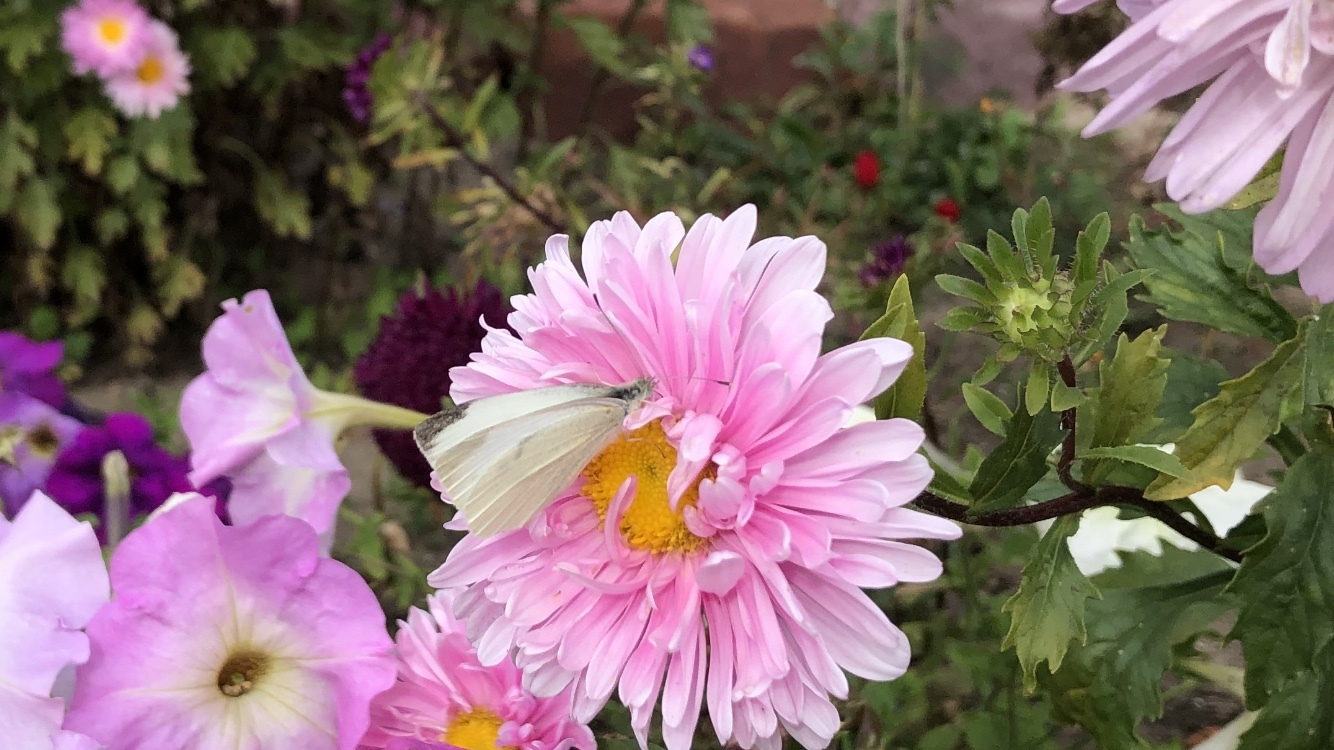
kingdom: Animalia
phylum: Arthropoda
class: Insecta
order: Lepidoptera
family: Pieridae
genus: Pieris
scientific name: Pieris rapae
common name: Small white
